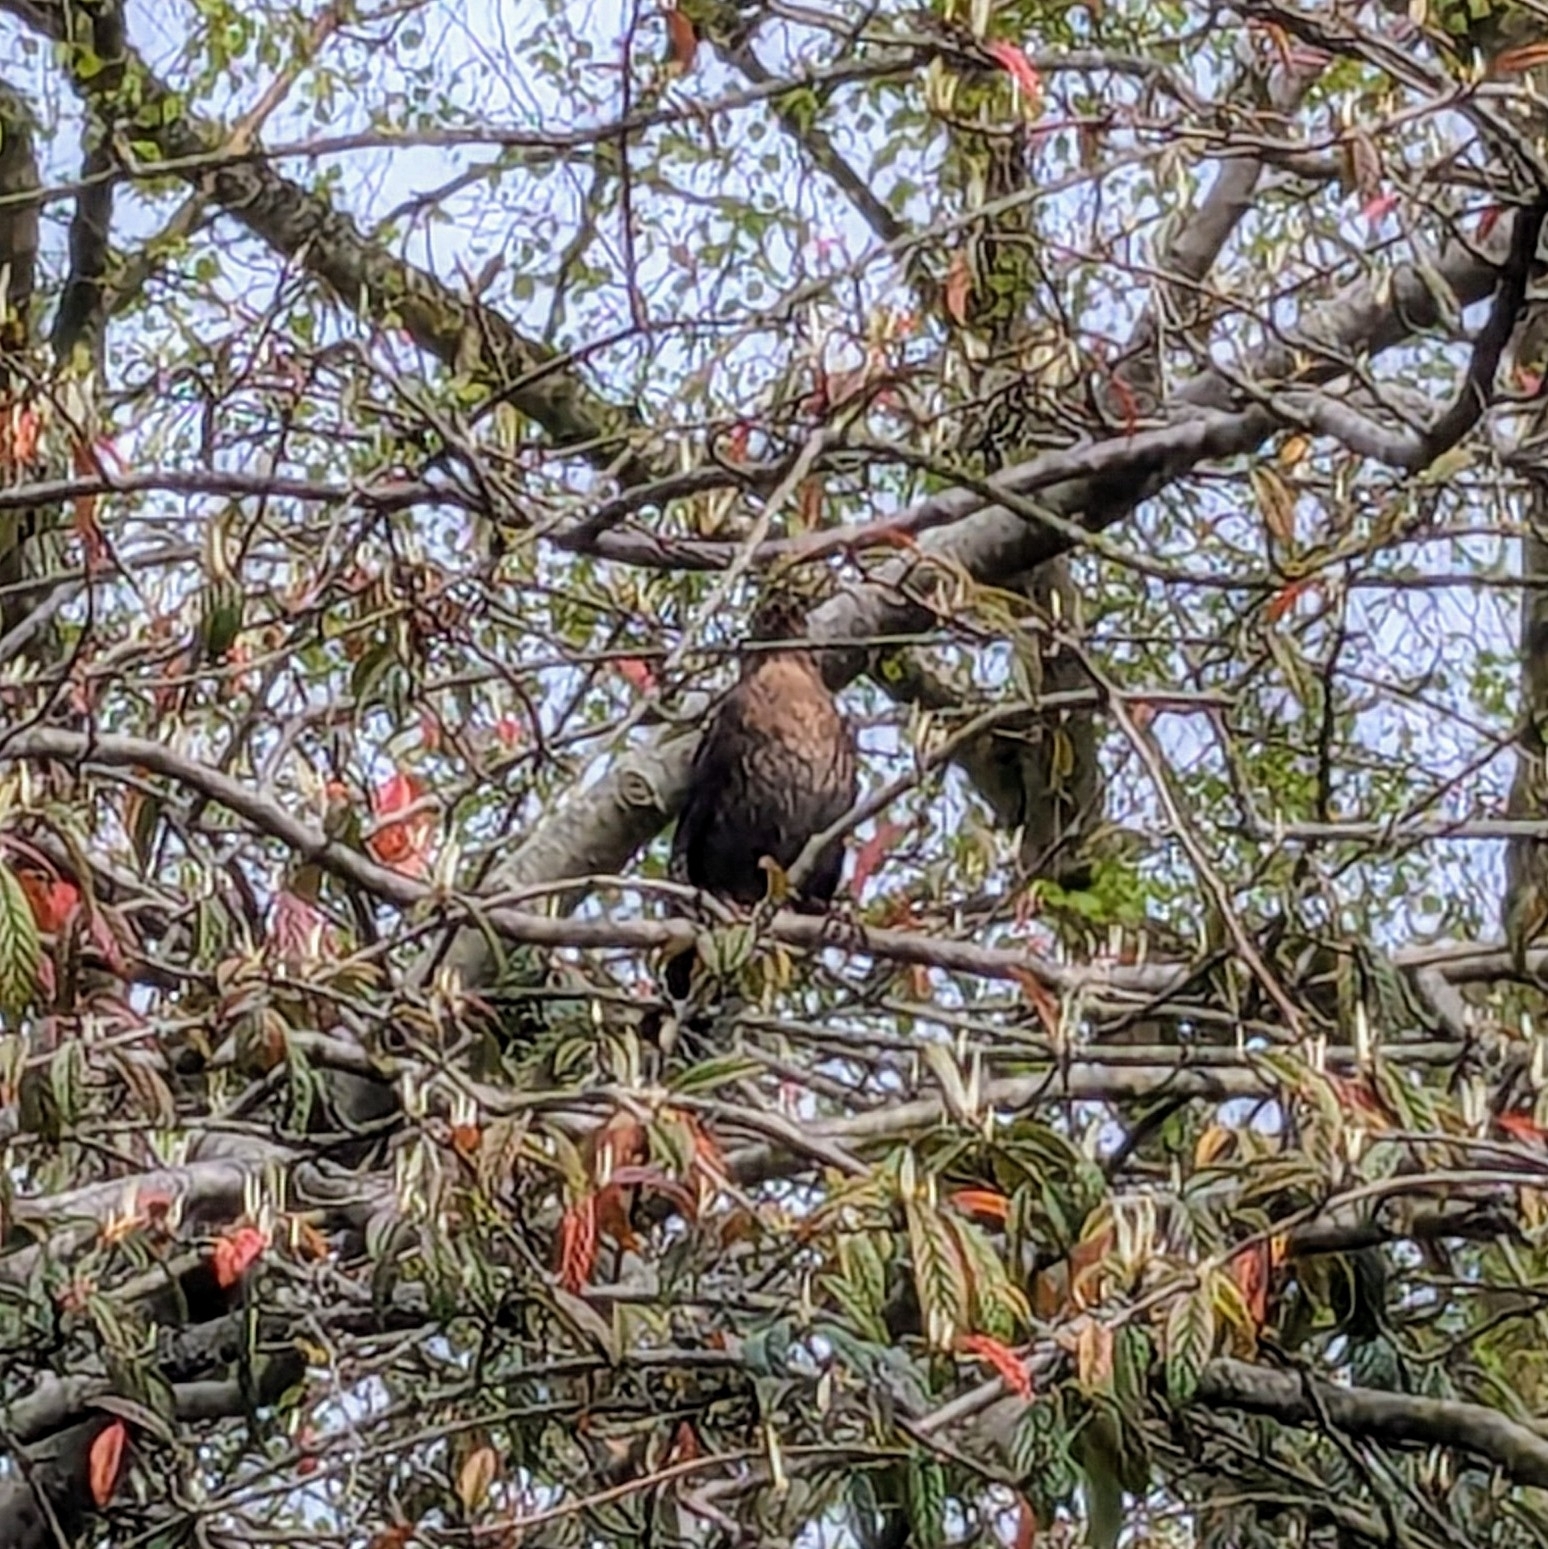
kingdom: Animalia
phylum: Chordata
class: Aves
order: Passeriformes
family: Turdidae
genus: Turdus
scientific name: Turdus merula
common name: Common blackbird
